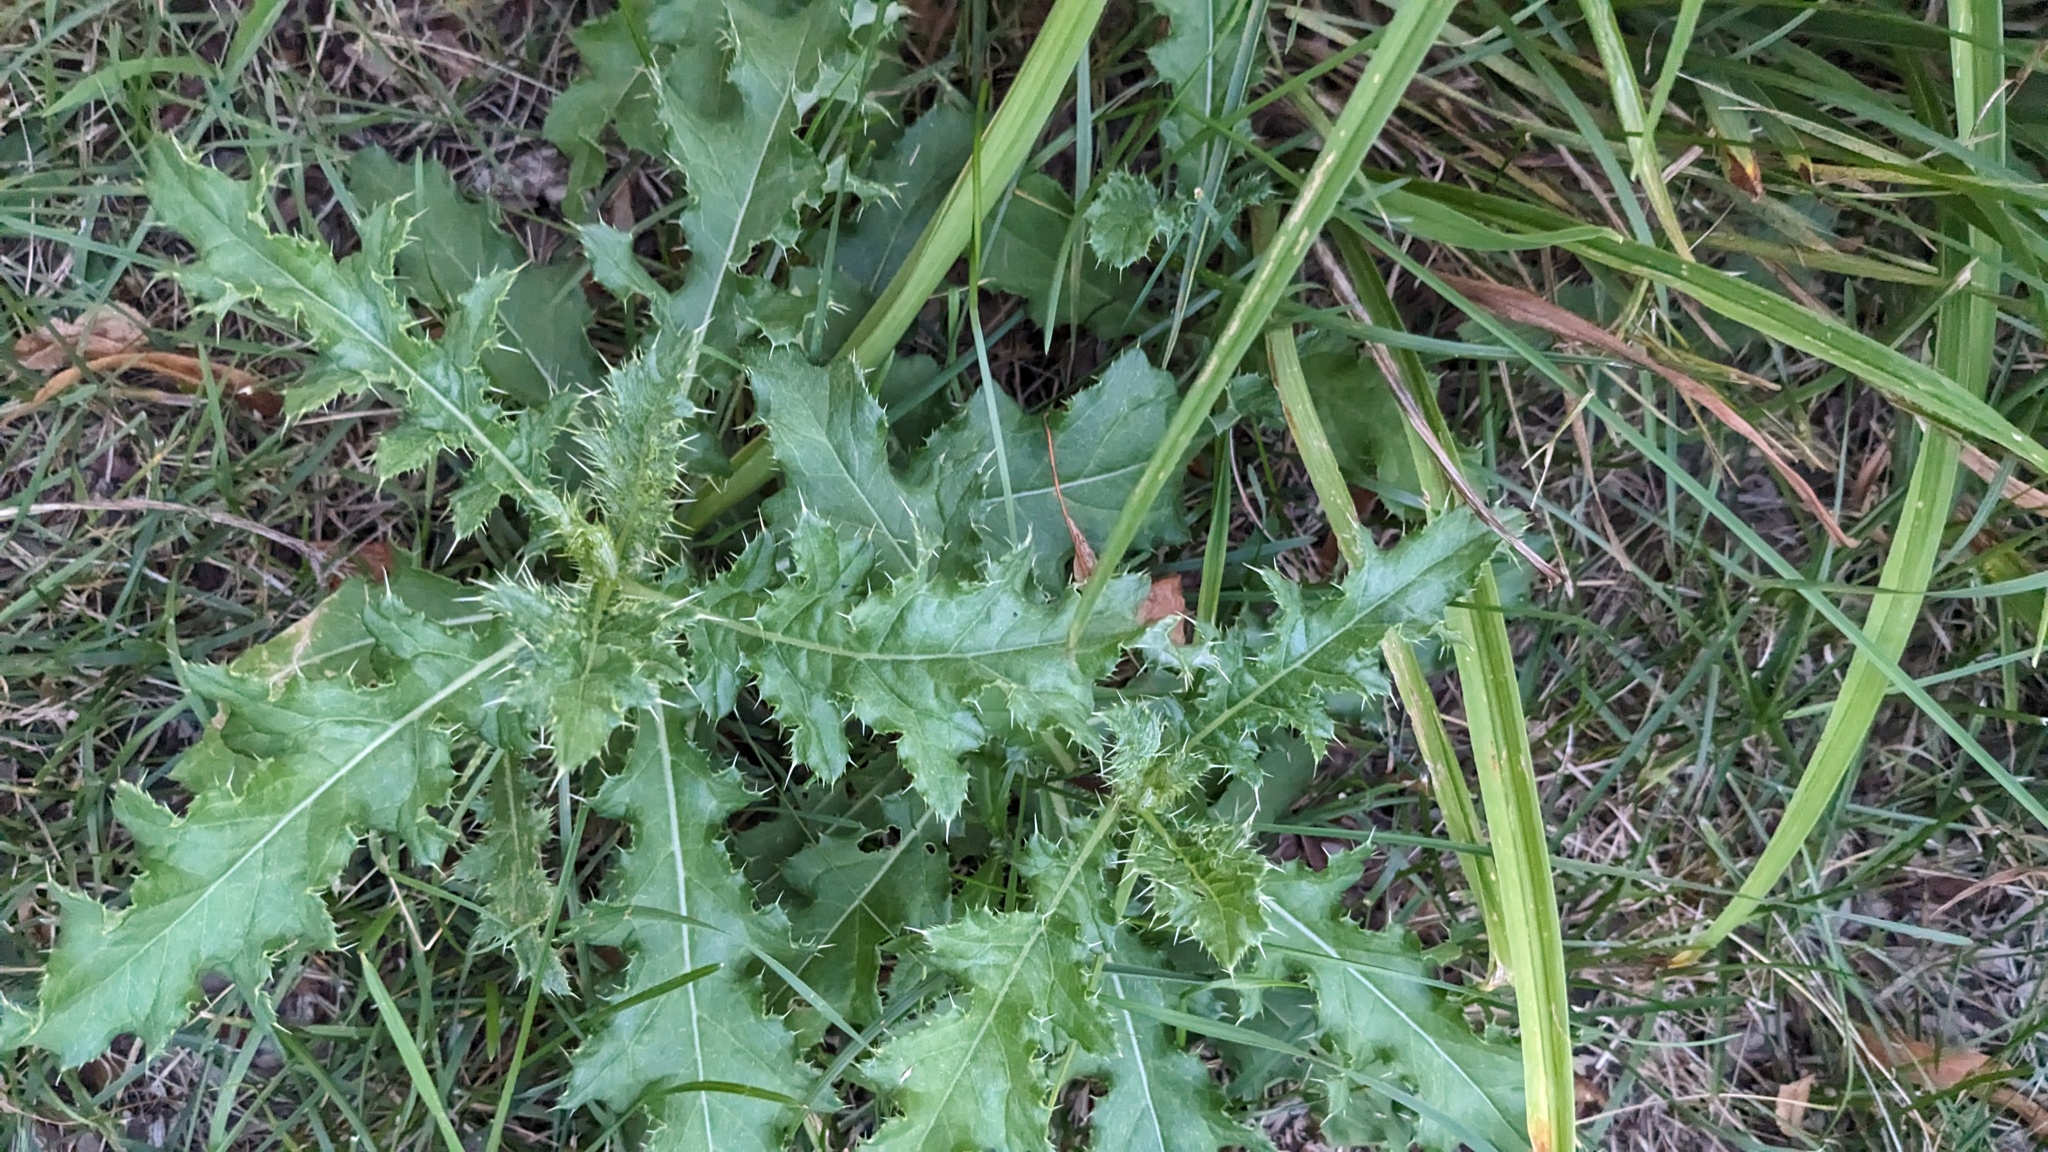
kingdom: Plantae
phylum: Tracheophyta
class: Magnoliopsida
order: Asterales
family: Asteraceae
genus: Cirsium
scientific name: Cirsium arvense
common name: Creeping thistle
